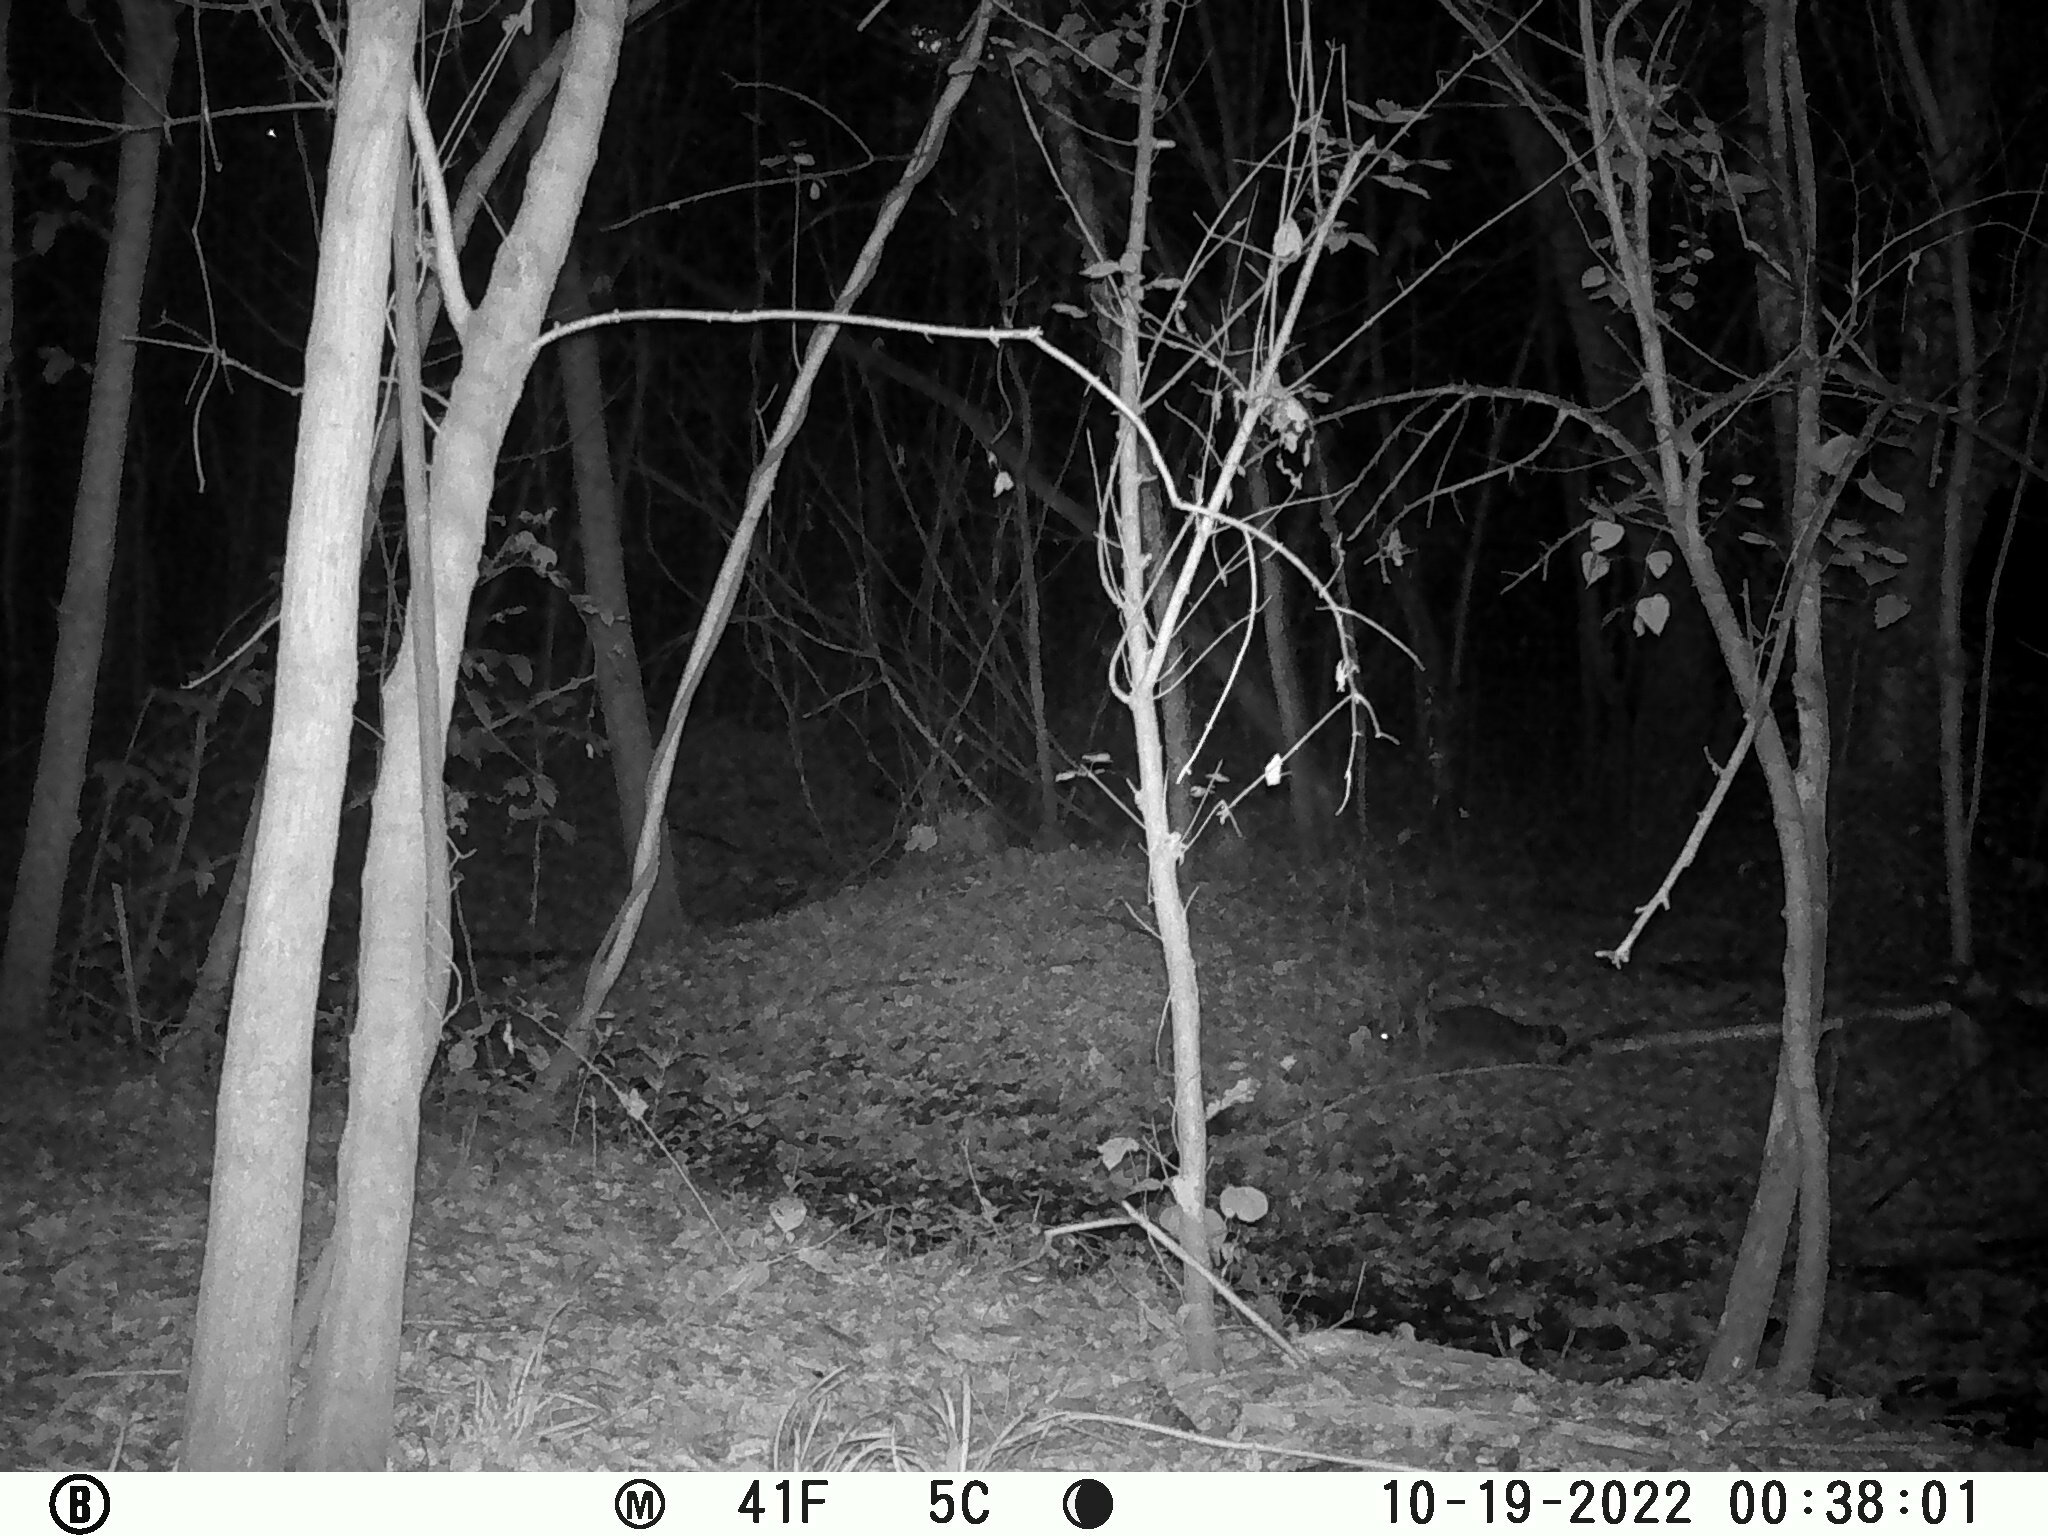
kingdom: Animalia
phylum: Chordata
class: Mammalia
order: Carnivora
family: Procyonidae
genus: Procyon
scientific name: Procyon lotor
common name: Raccoon
